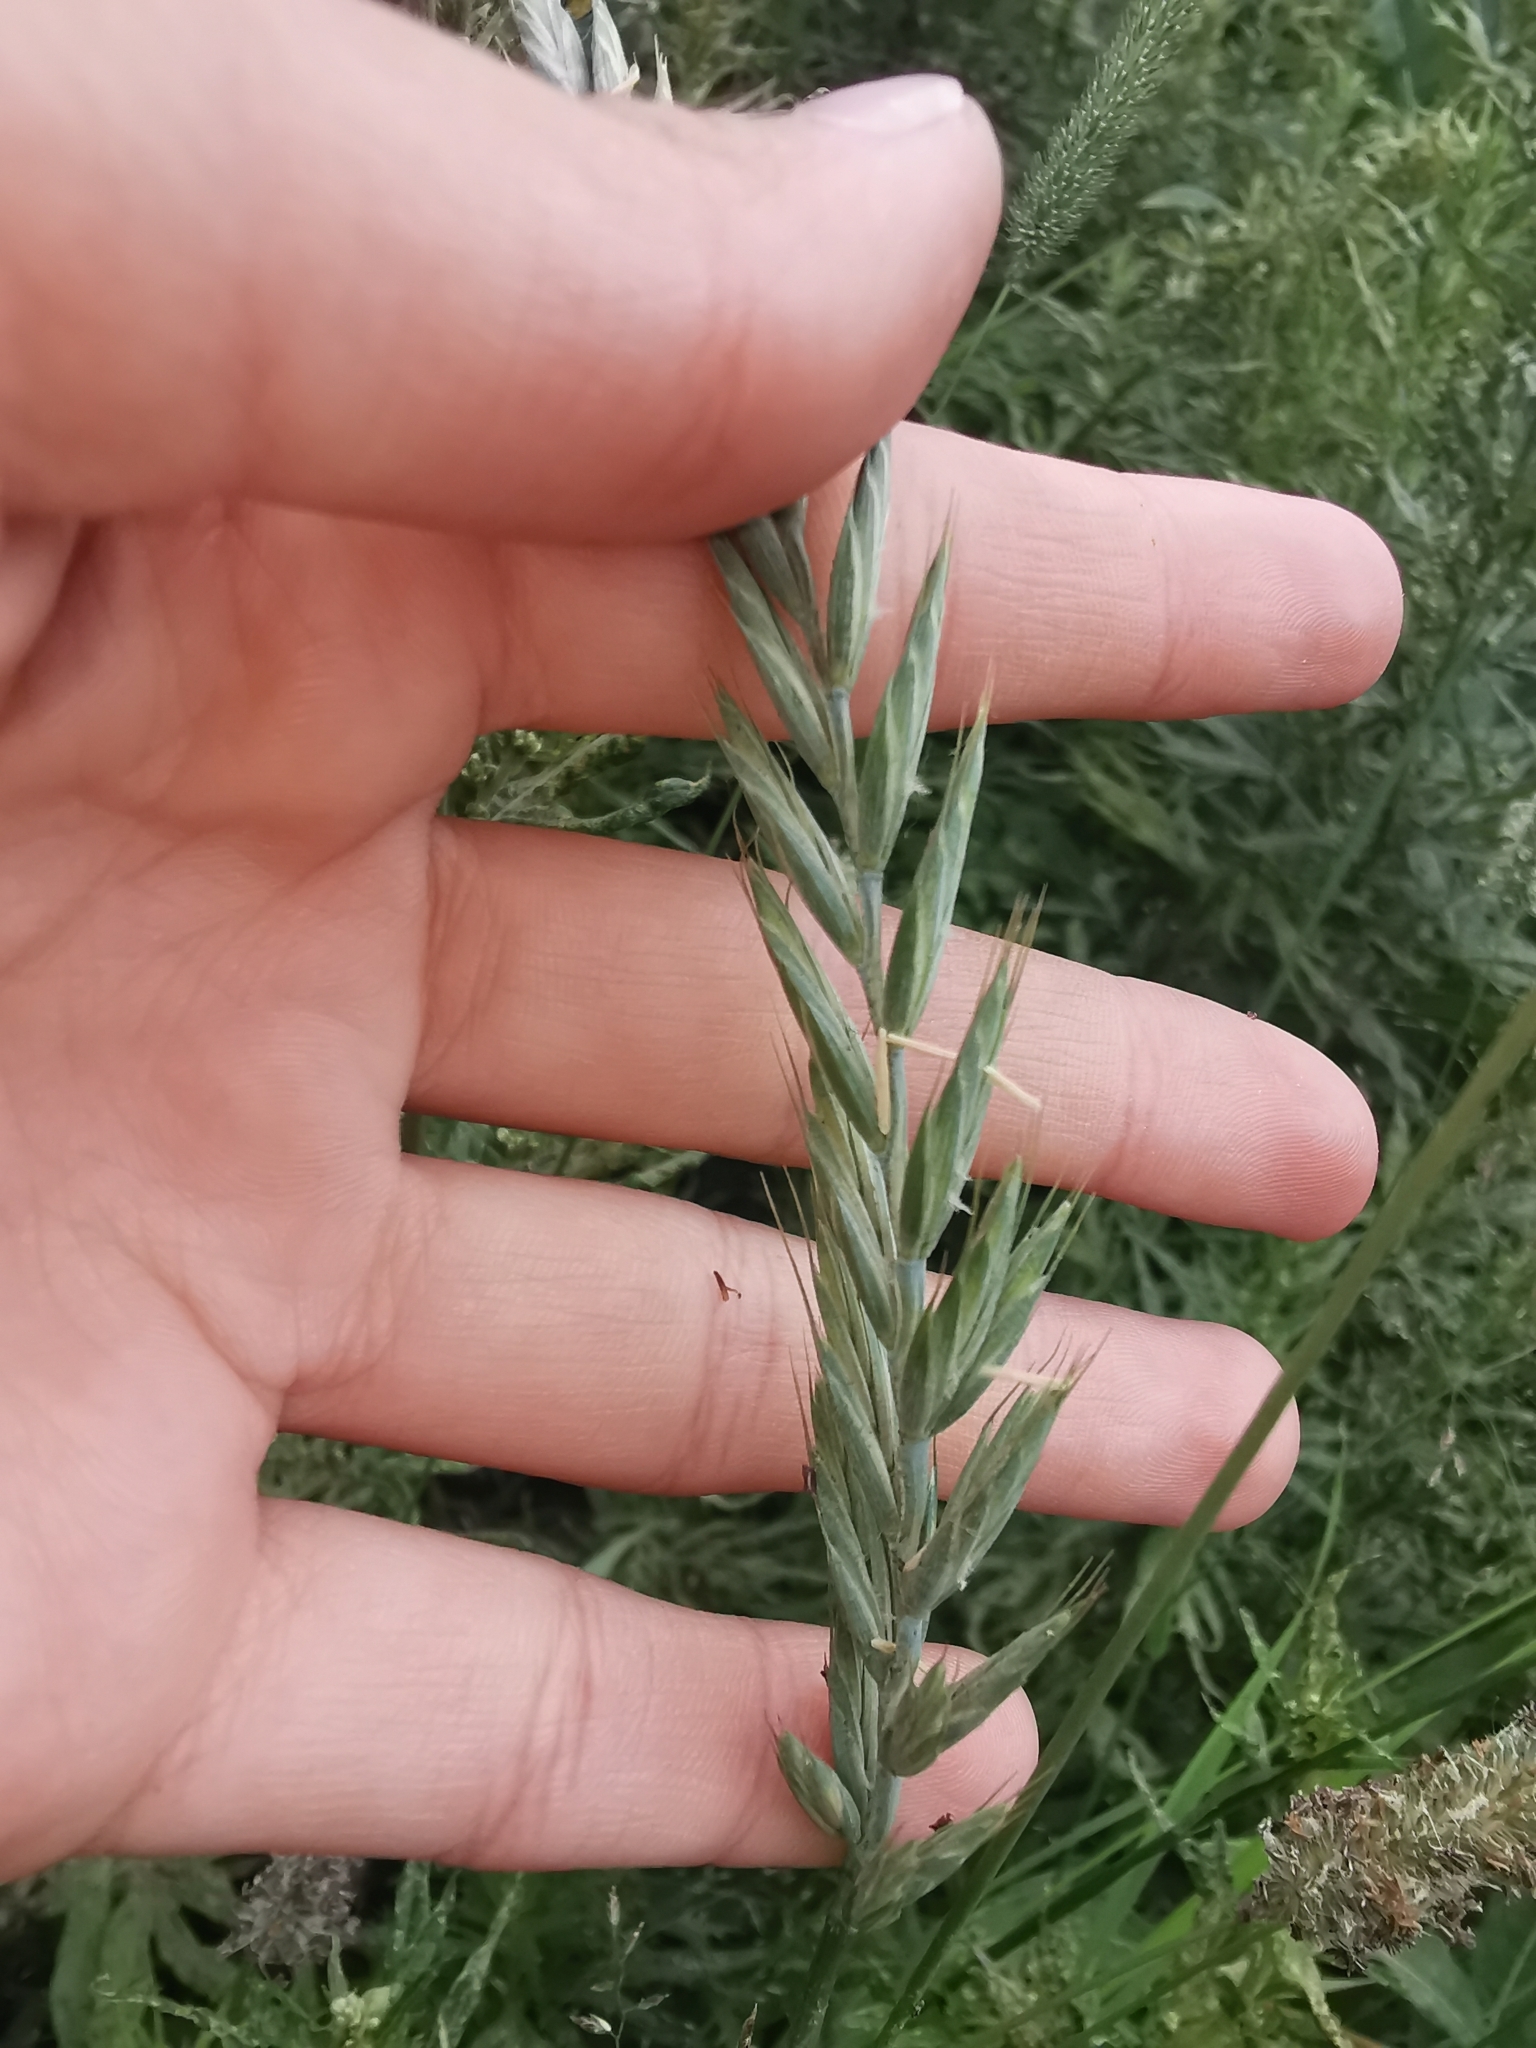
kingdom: Plantae
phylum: Tracheophyta
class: Liliopsida
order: Poales
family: Poaceae
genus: Elymus
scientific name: Elymus repens
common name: Quackgrass
